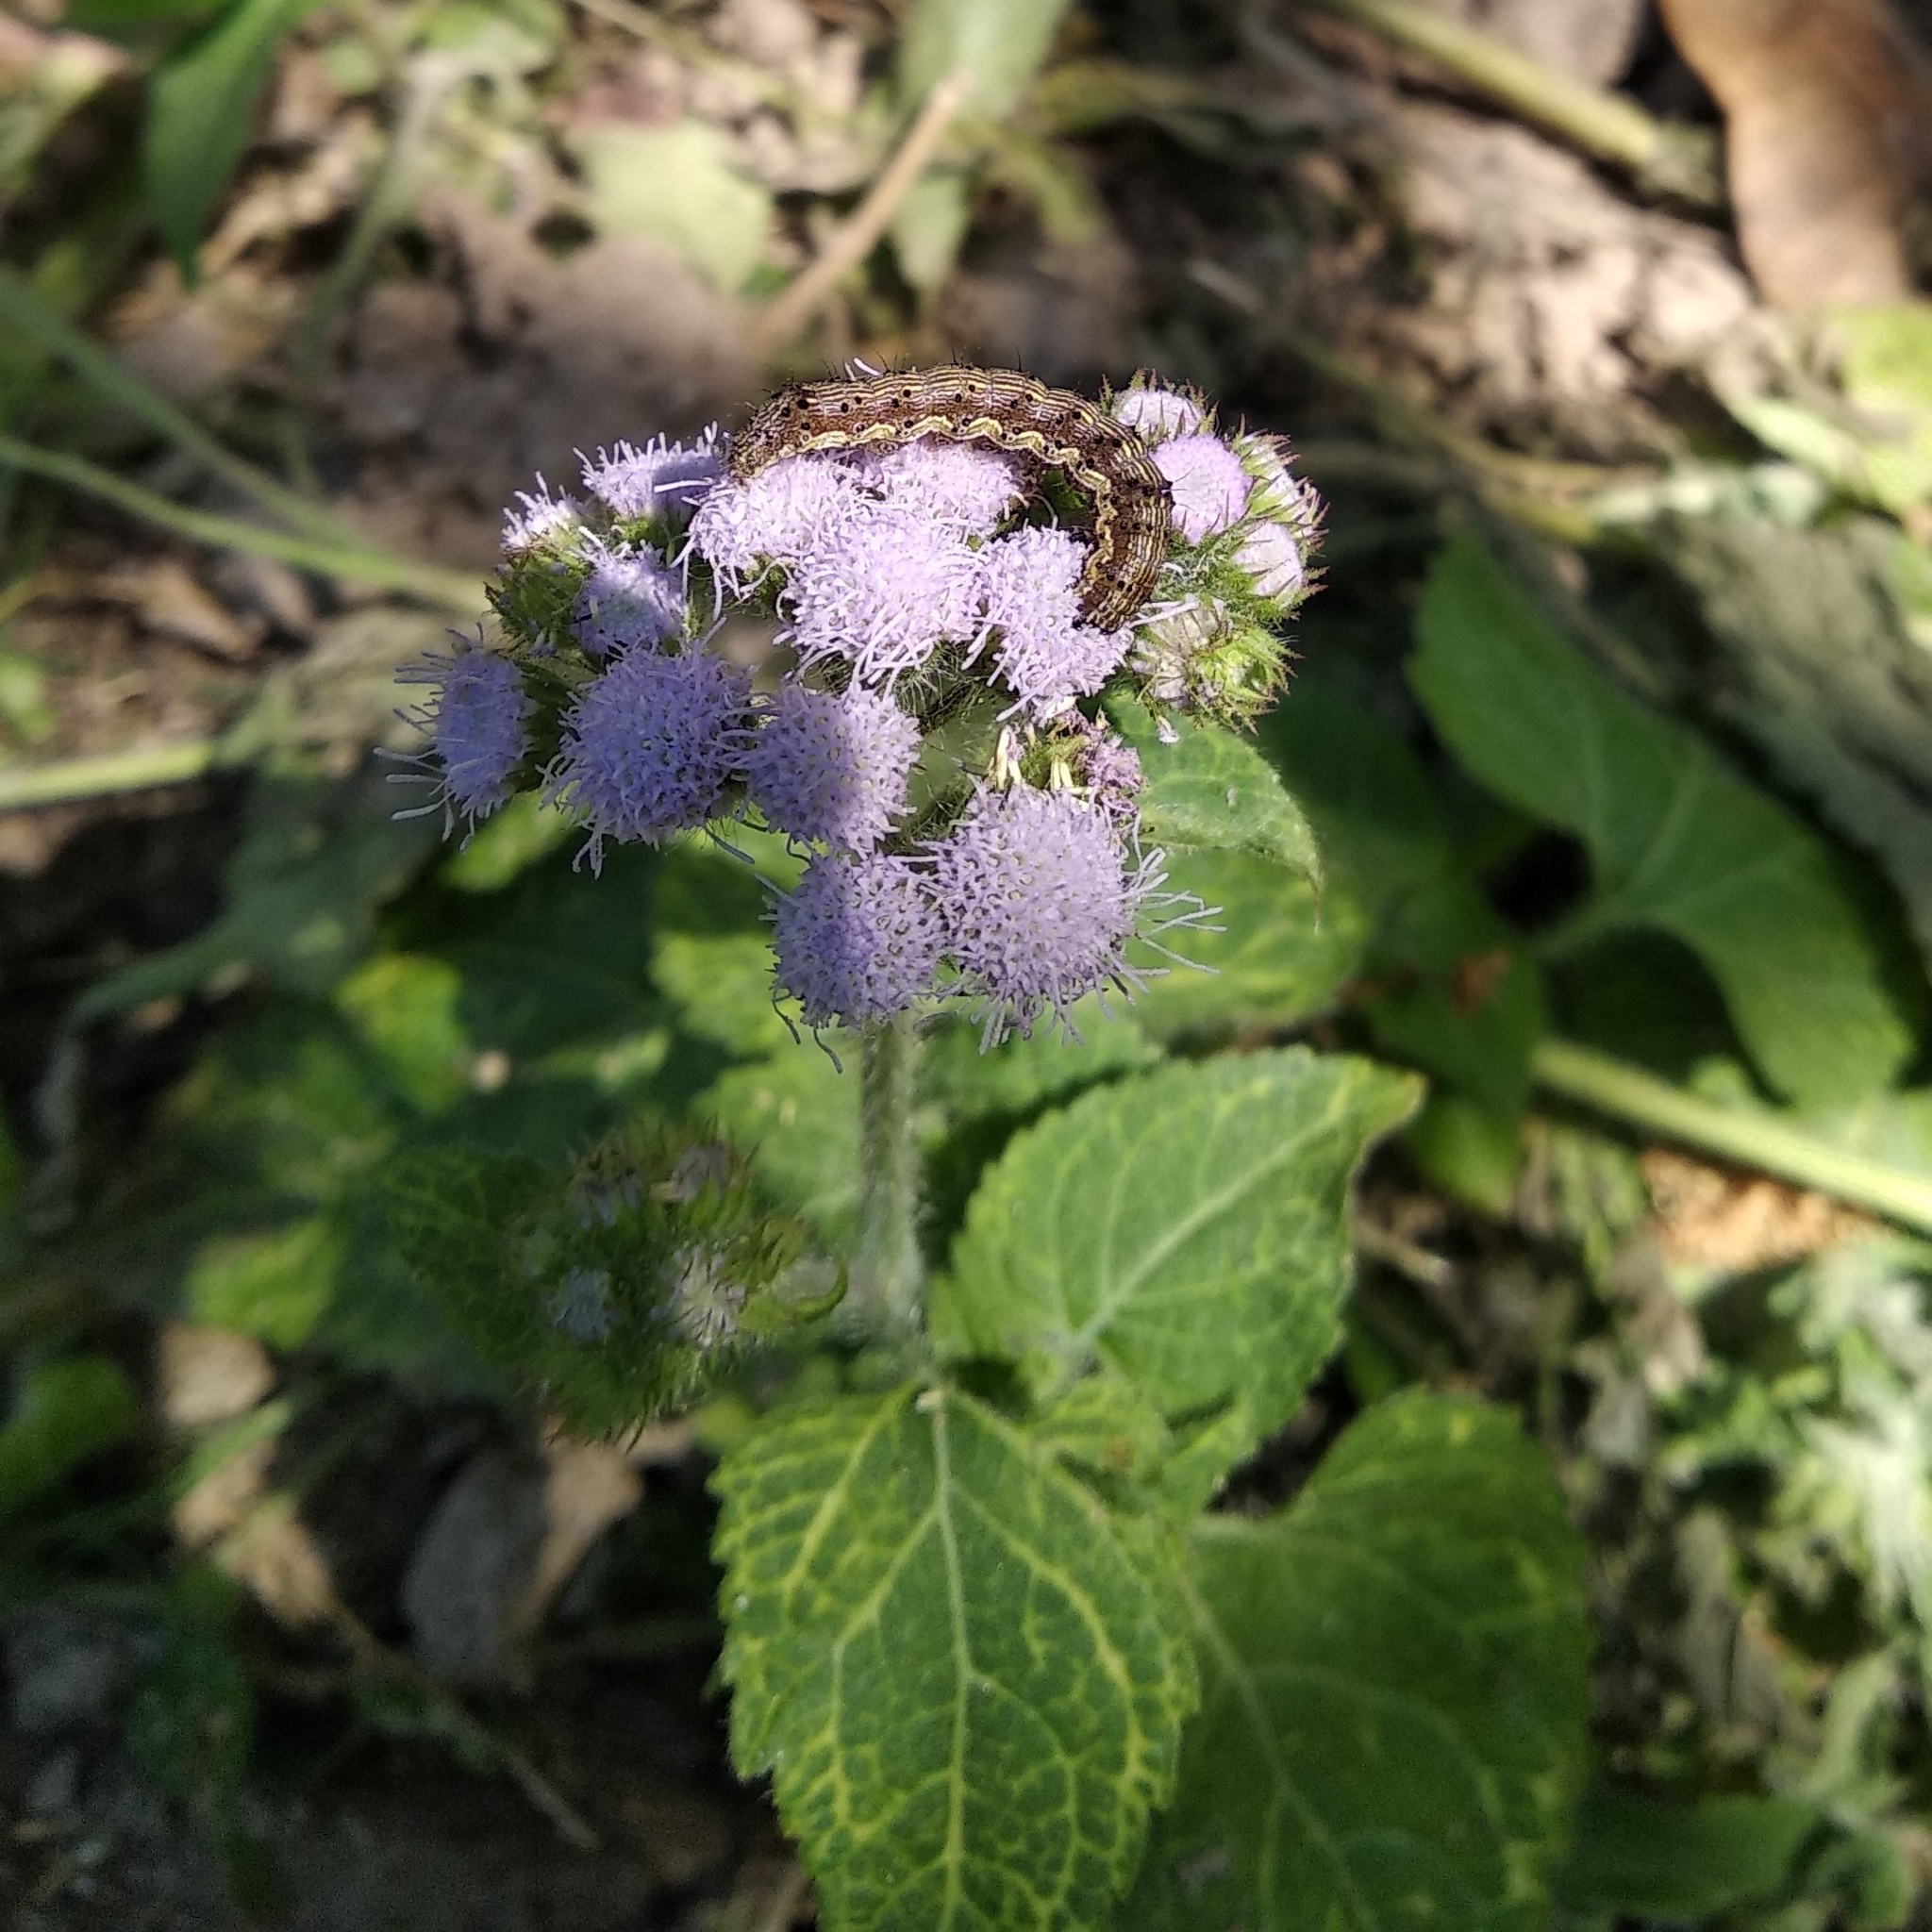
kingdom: Plantae
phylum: Tracheophyta
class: Magnoliopsida
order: Asterales
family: Asteraceae
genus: Ageratum
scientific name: Ageratum houstonianum
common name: Bluemink
